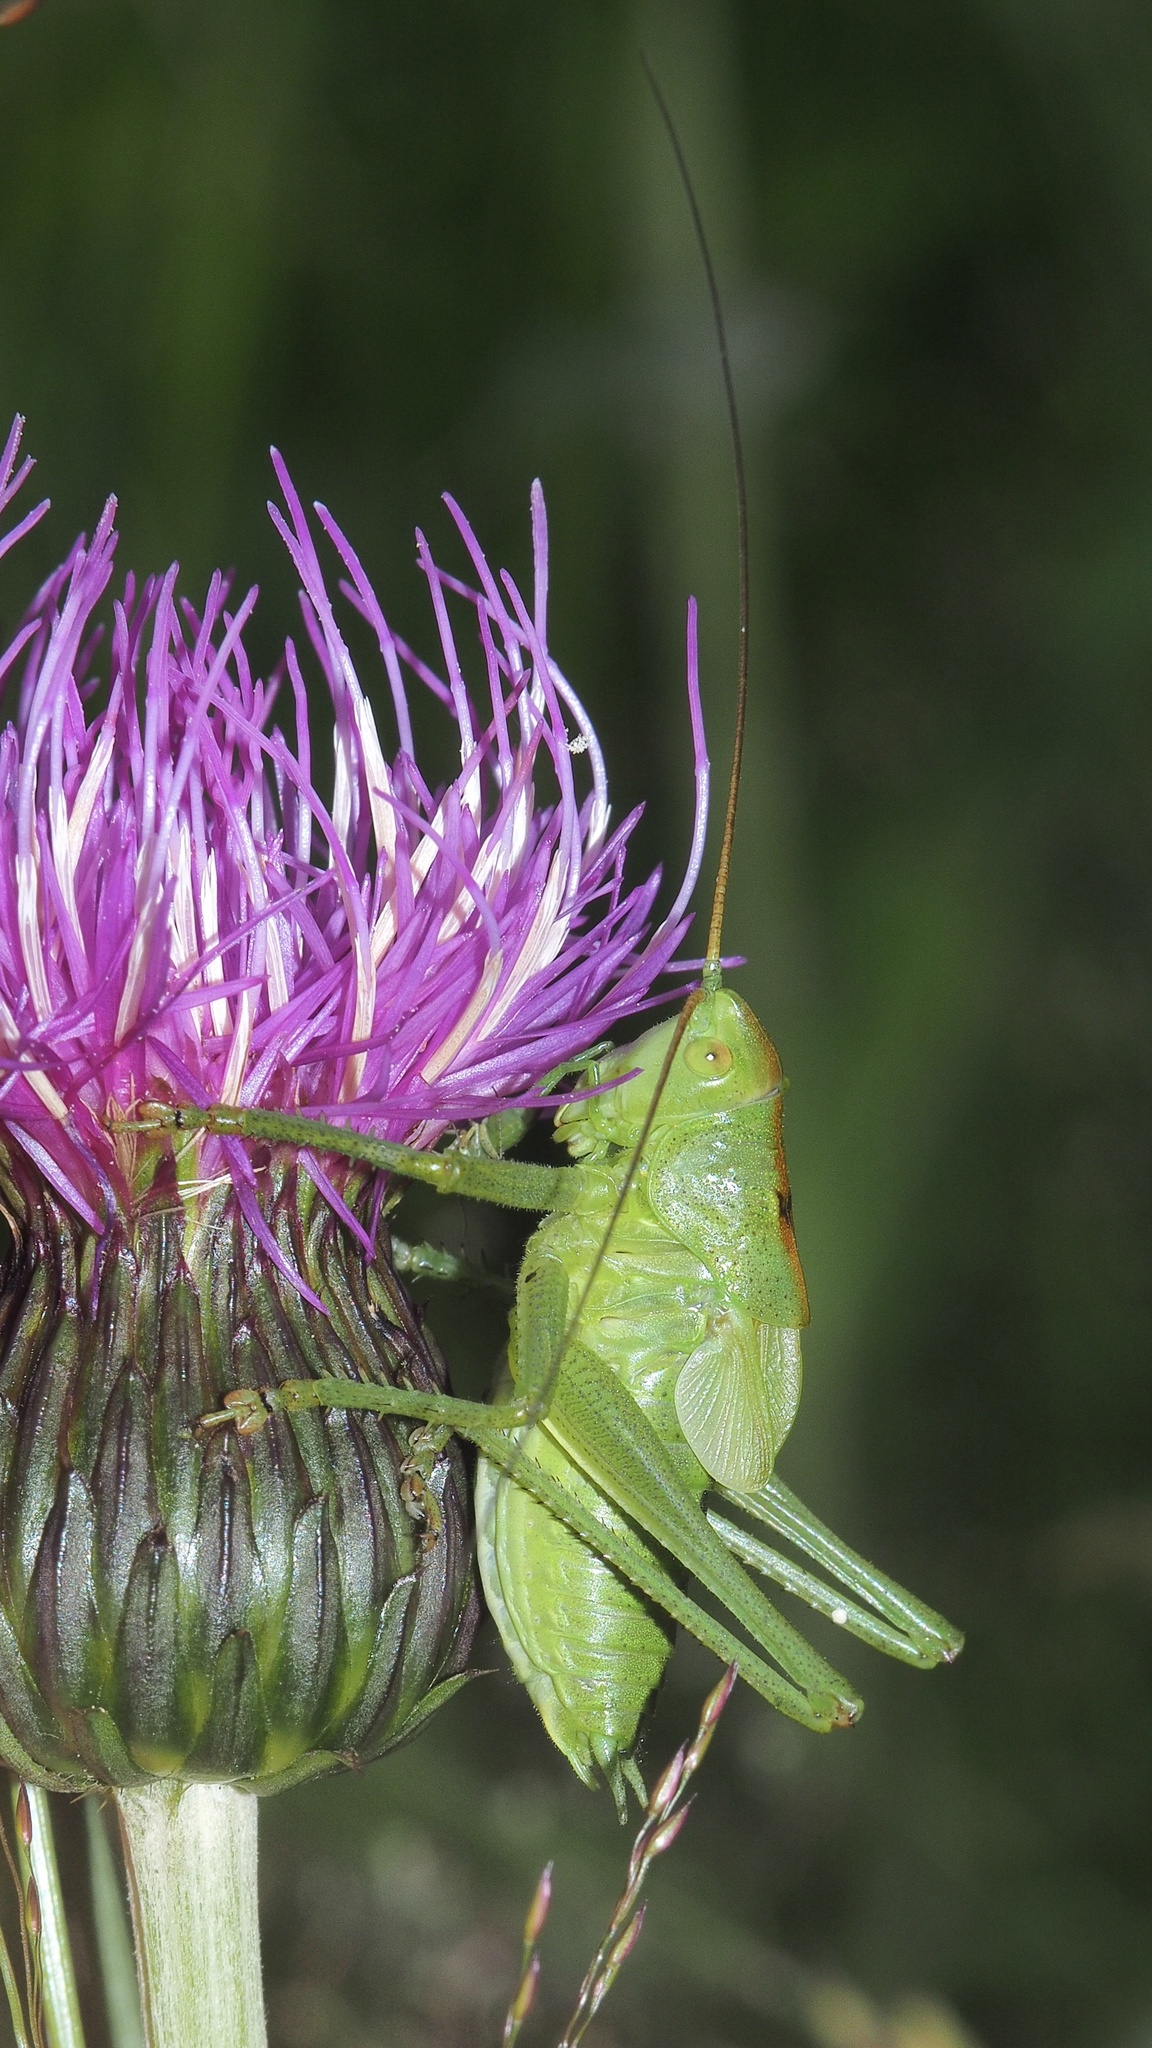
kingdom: Animalia
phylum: Arthropoda
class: Insecta
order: Orthoptera
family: Tettigoniidae
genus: Tettigonia
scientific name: Tettigonia cantans
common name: Upland green bush-cricket
